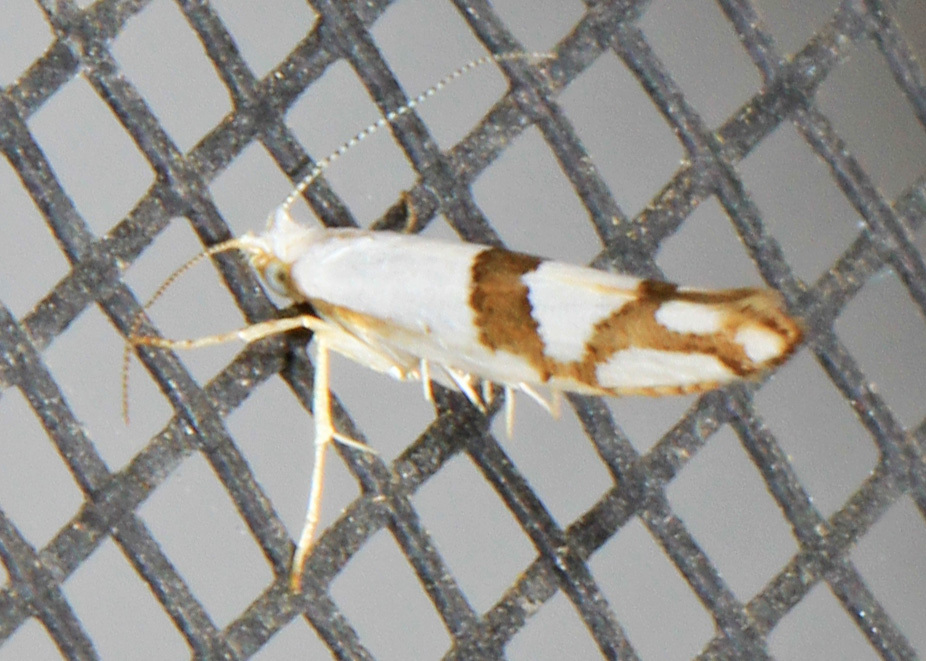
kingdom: Animalia
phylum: Arthropoda
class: Insecta
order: Lepidoptera
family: Argyresthiidae
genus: Argyresthia
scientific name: Argyresthia oreasella
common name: Cherry shoot borer moth
